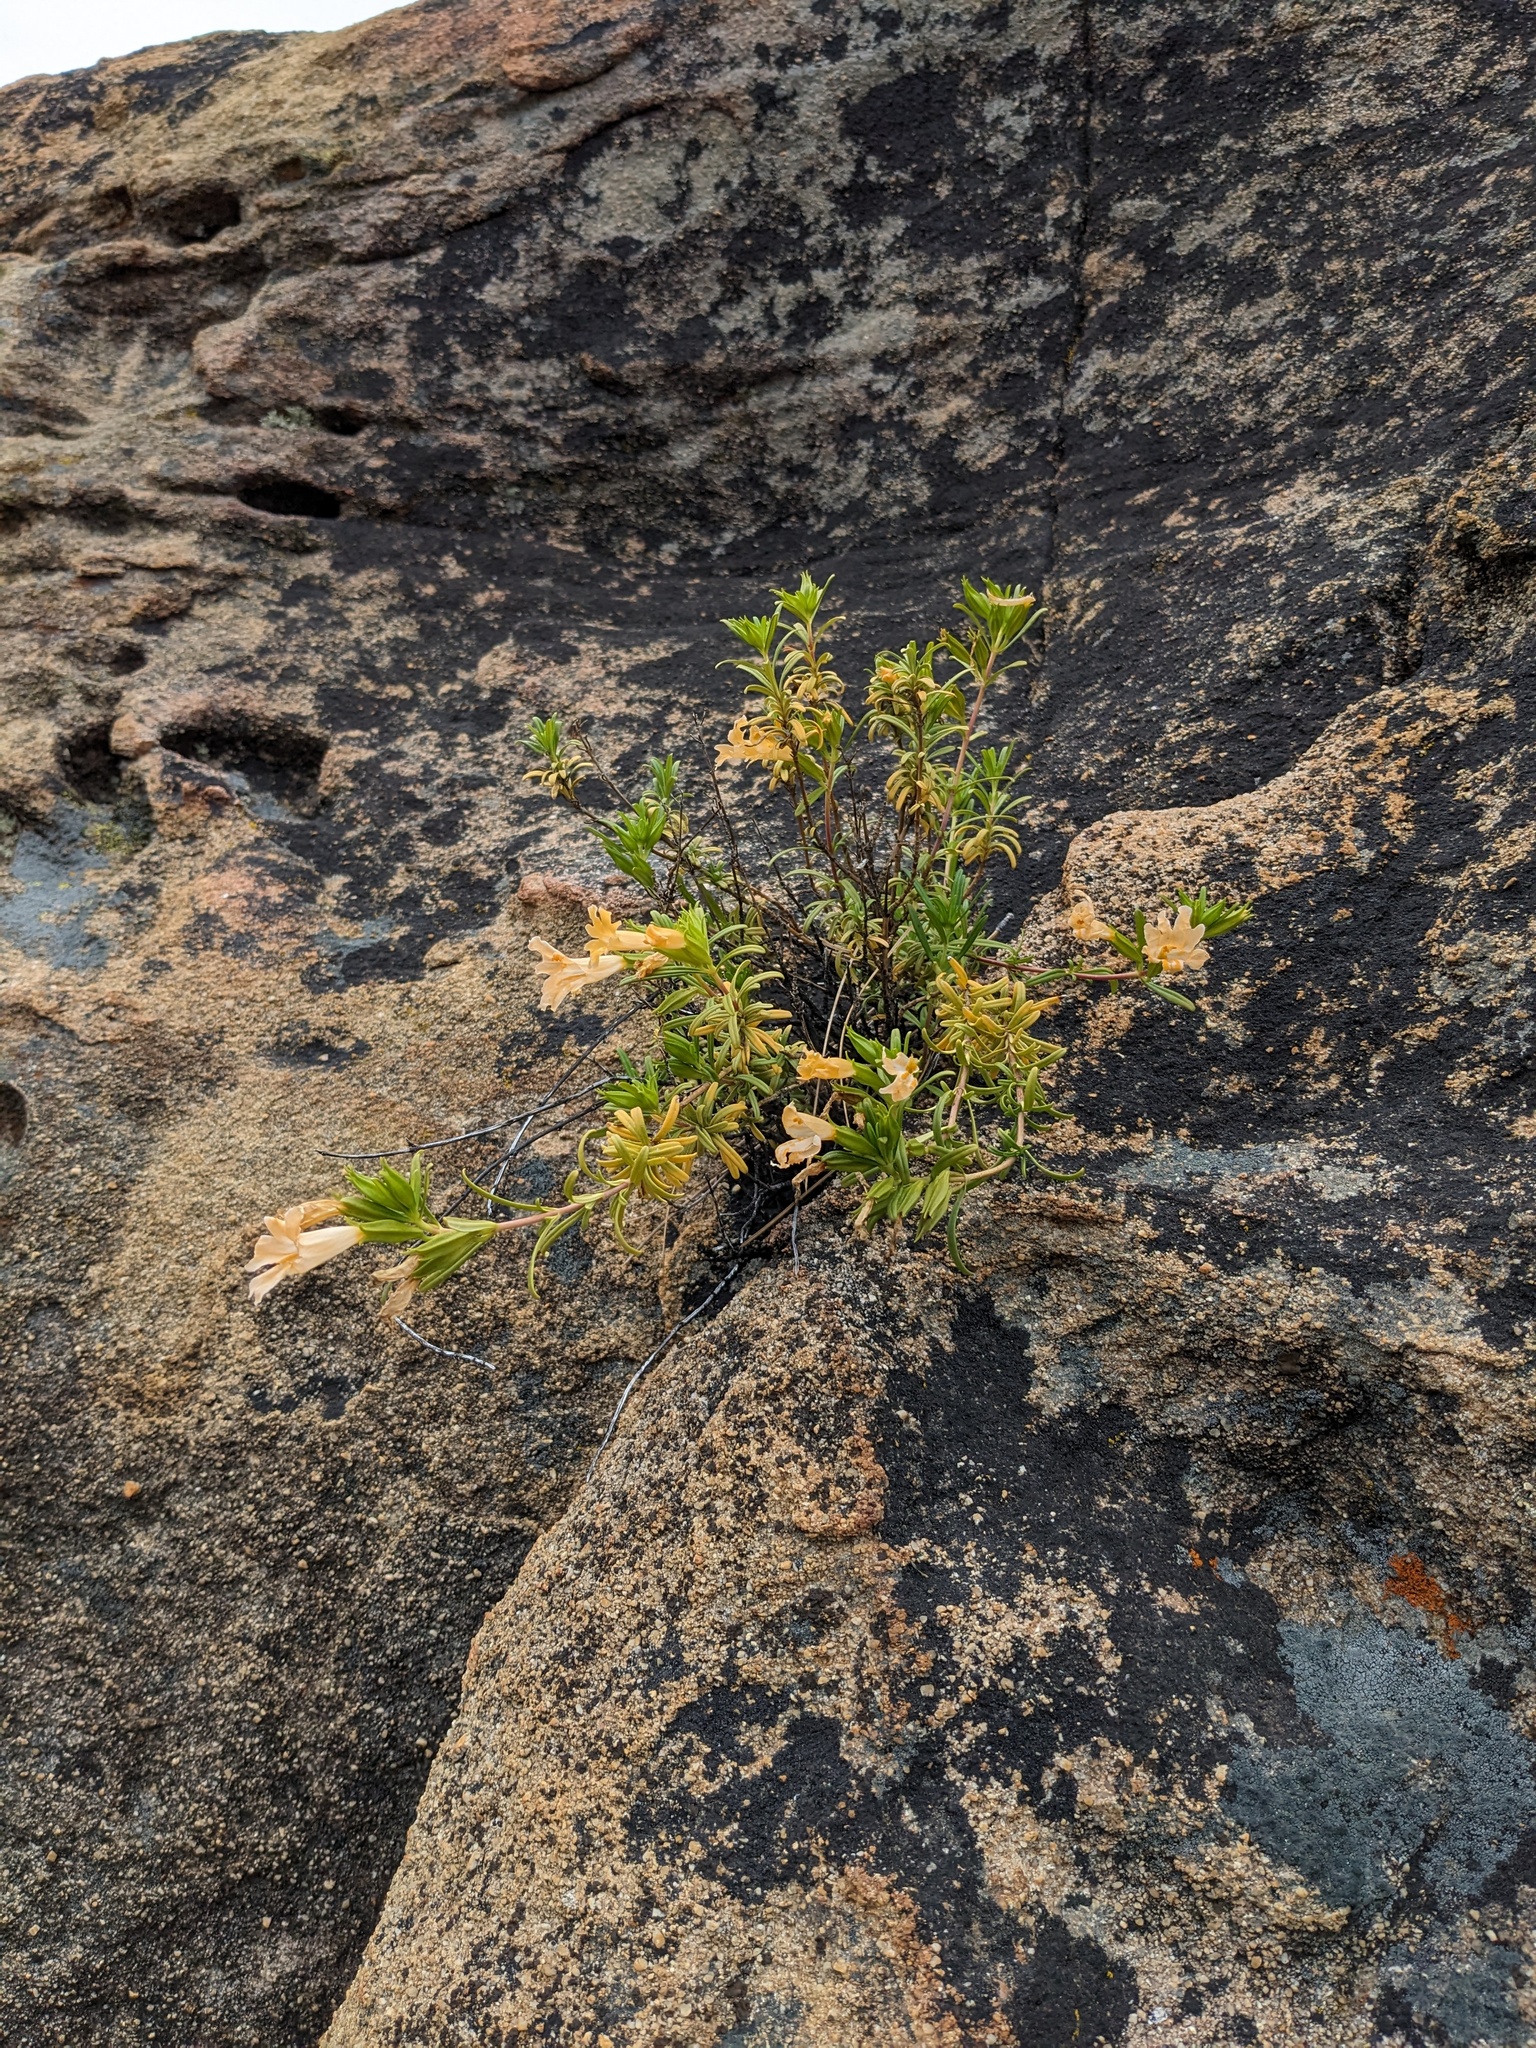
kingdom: Plantae
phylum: Tracheophyta
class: Magnoliopsida
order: Lamiales
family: Phrymaceae
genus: Diplacus
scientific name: Diplacus linearis
